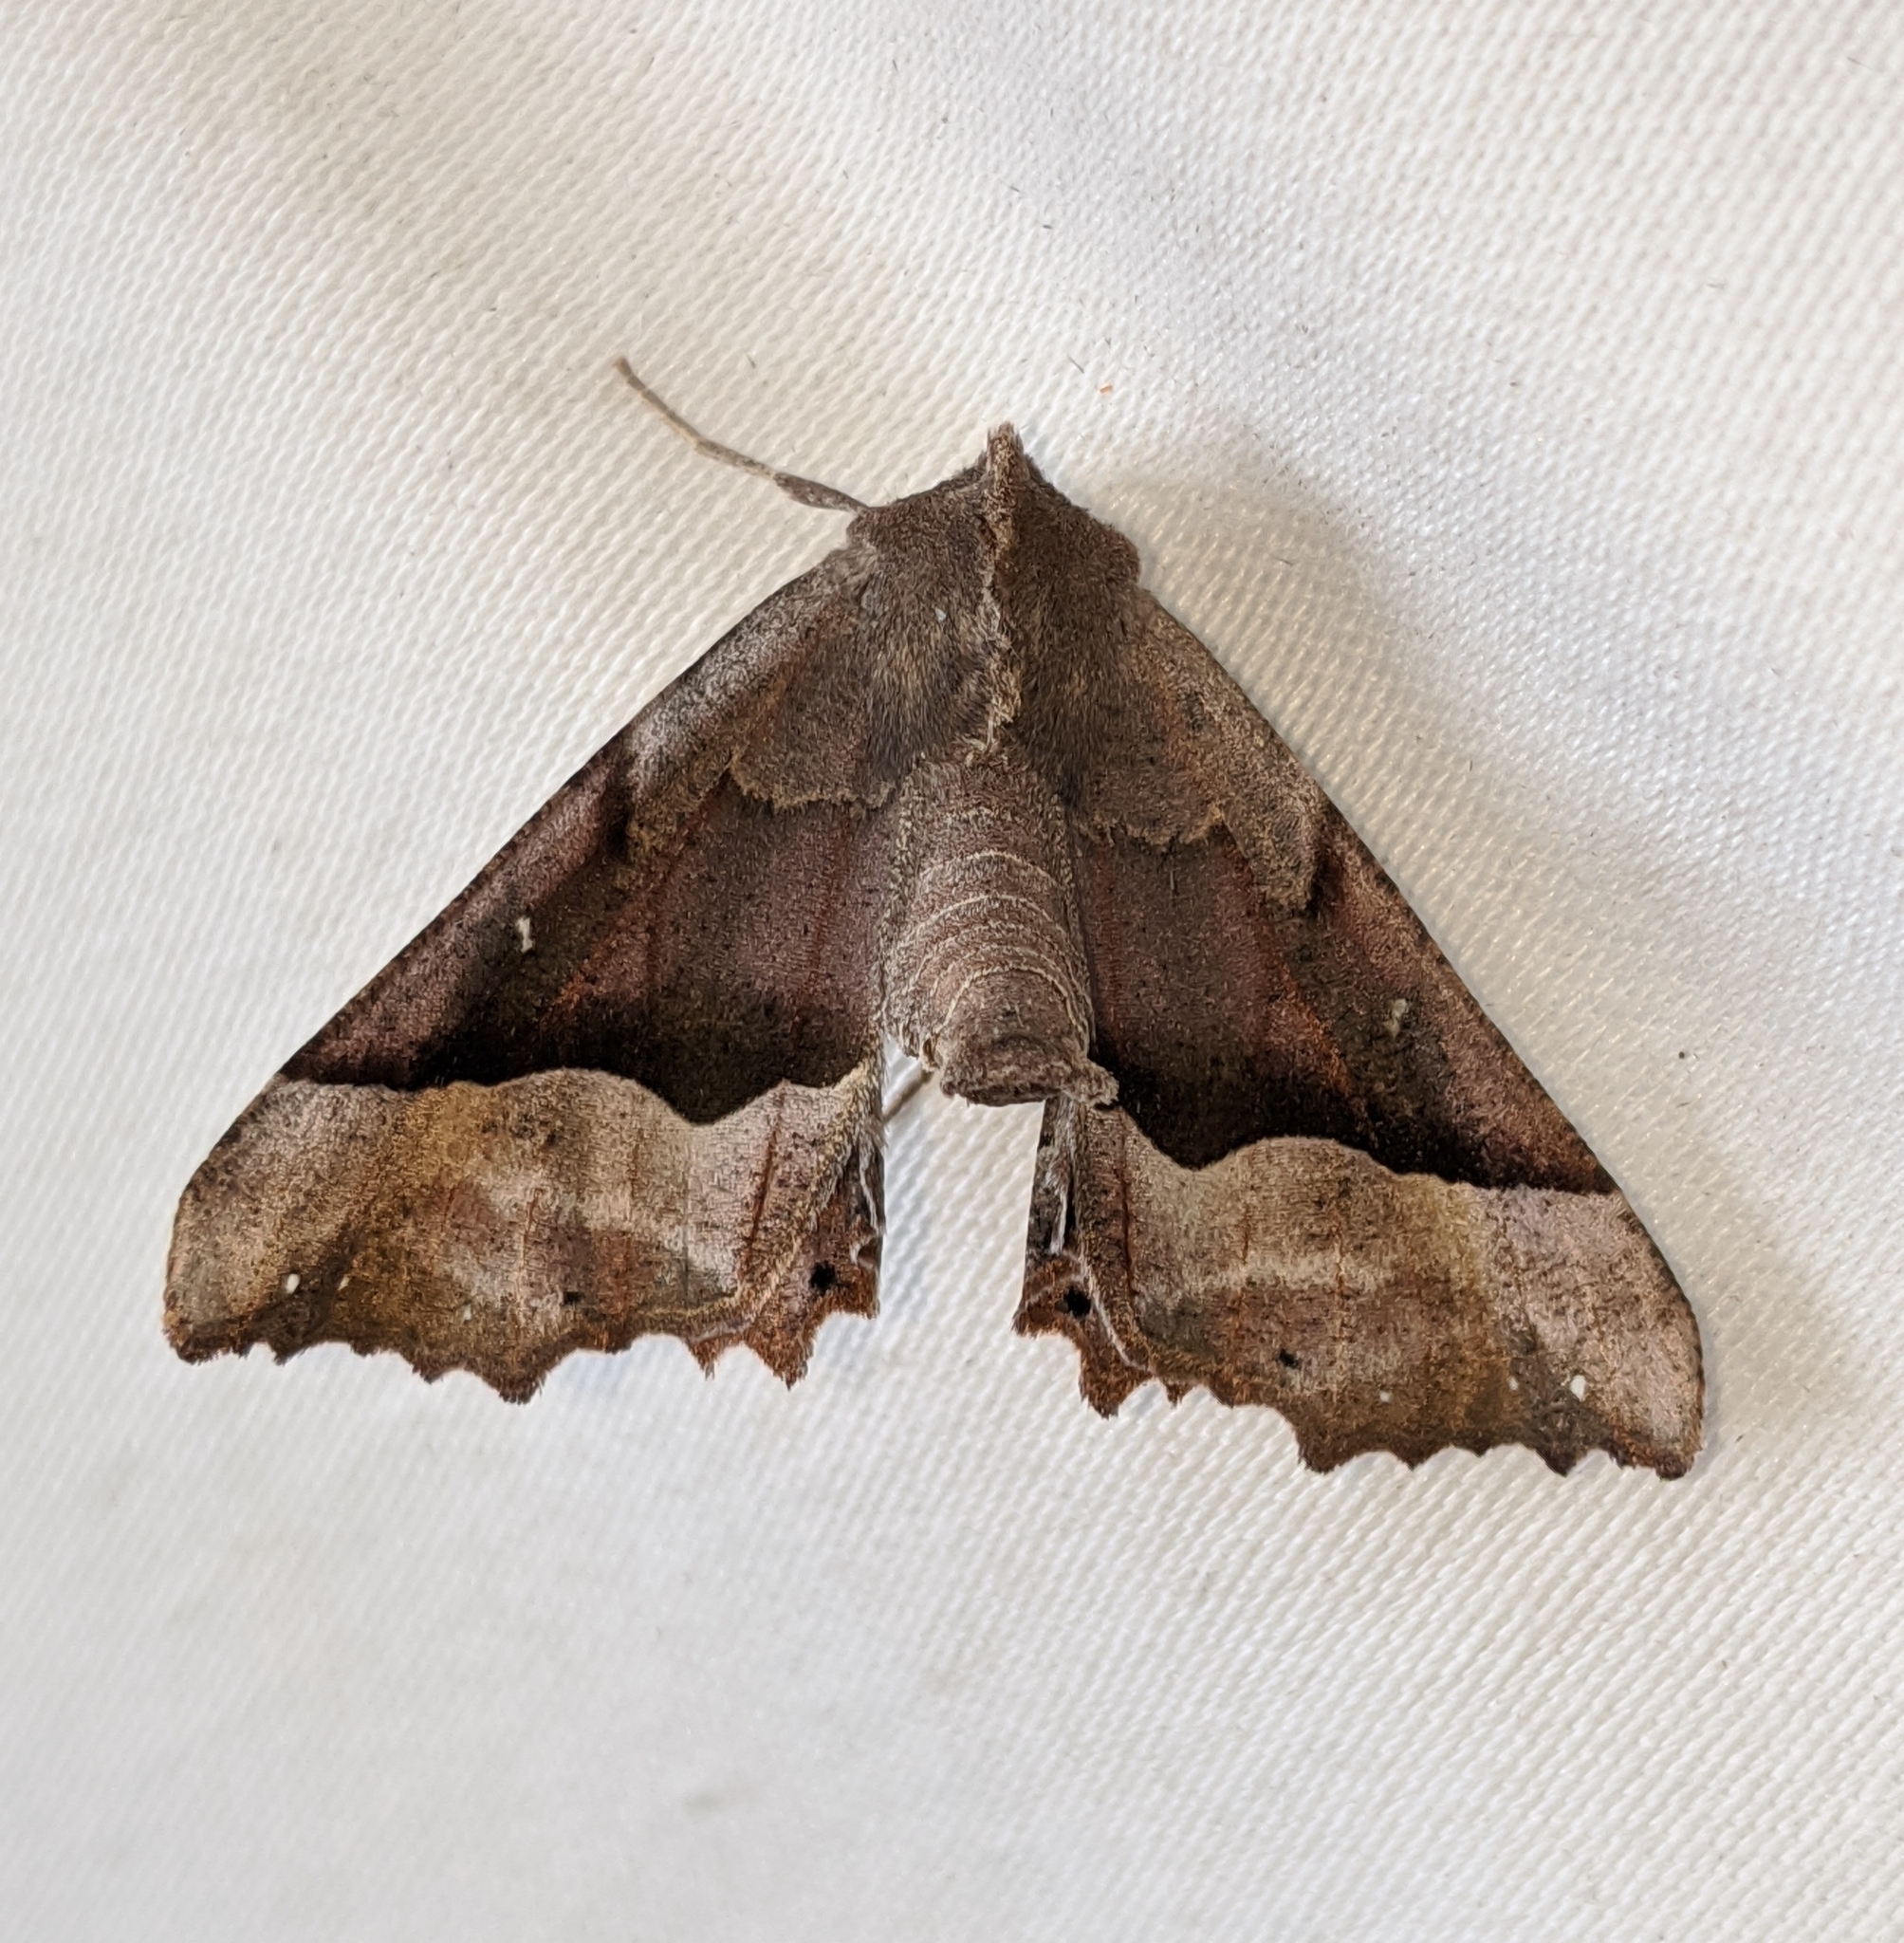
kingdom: Animalia
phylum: Arthropoda
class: Insecta
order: Lepidoptera
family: Geometridae
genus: Pero
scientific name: Pero mizon
